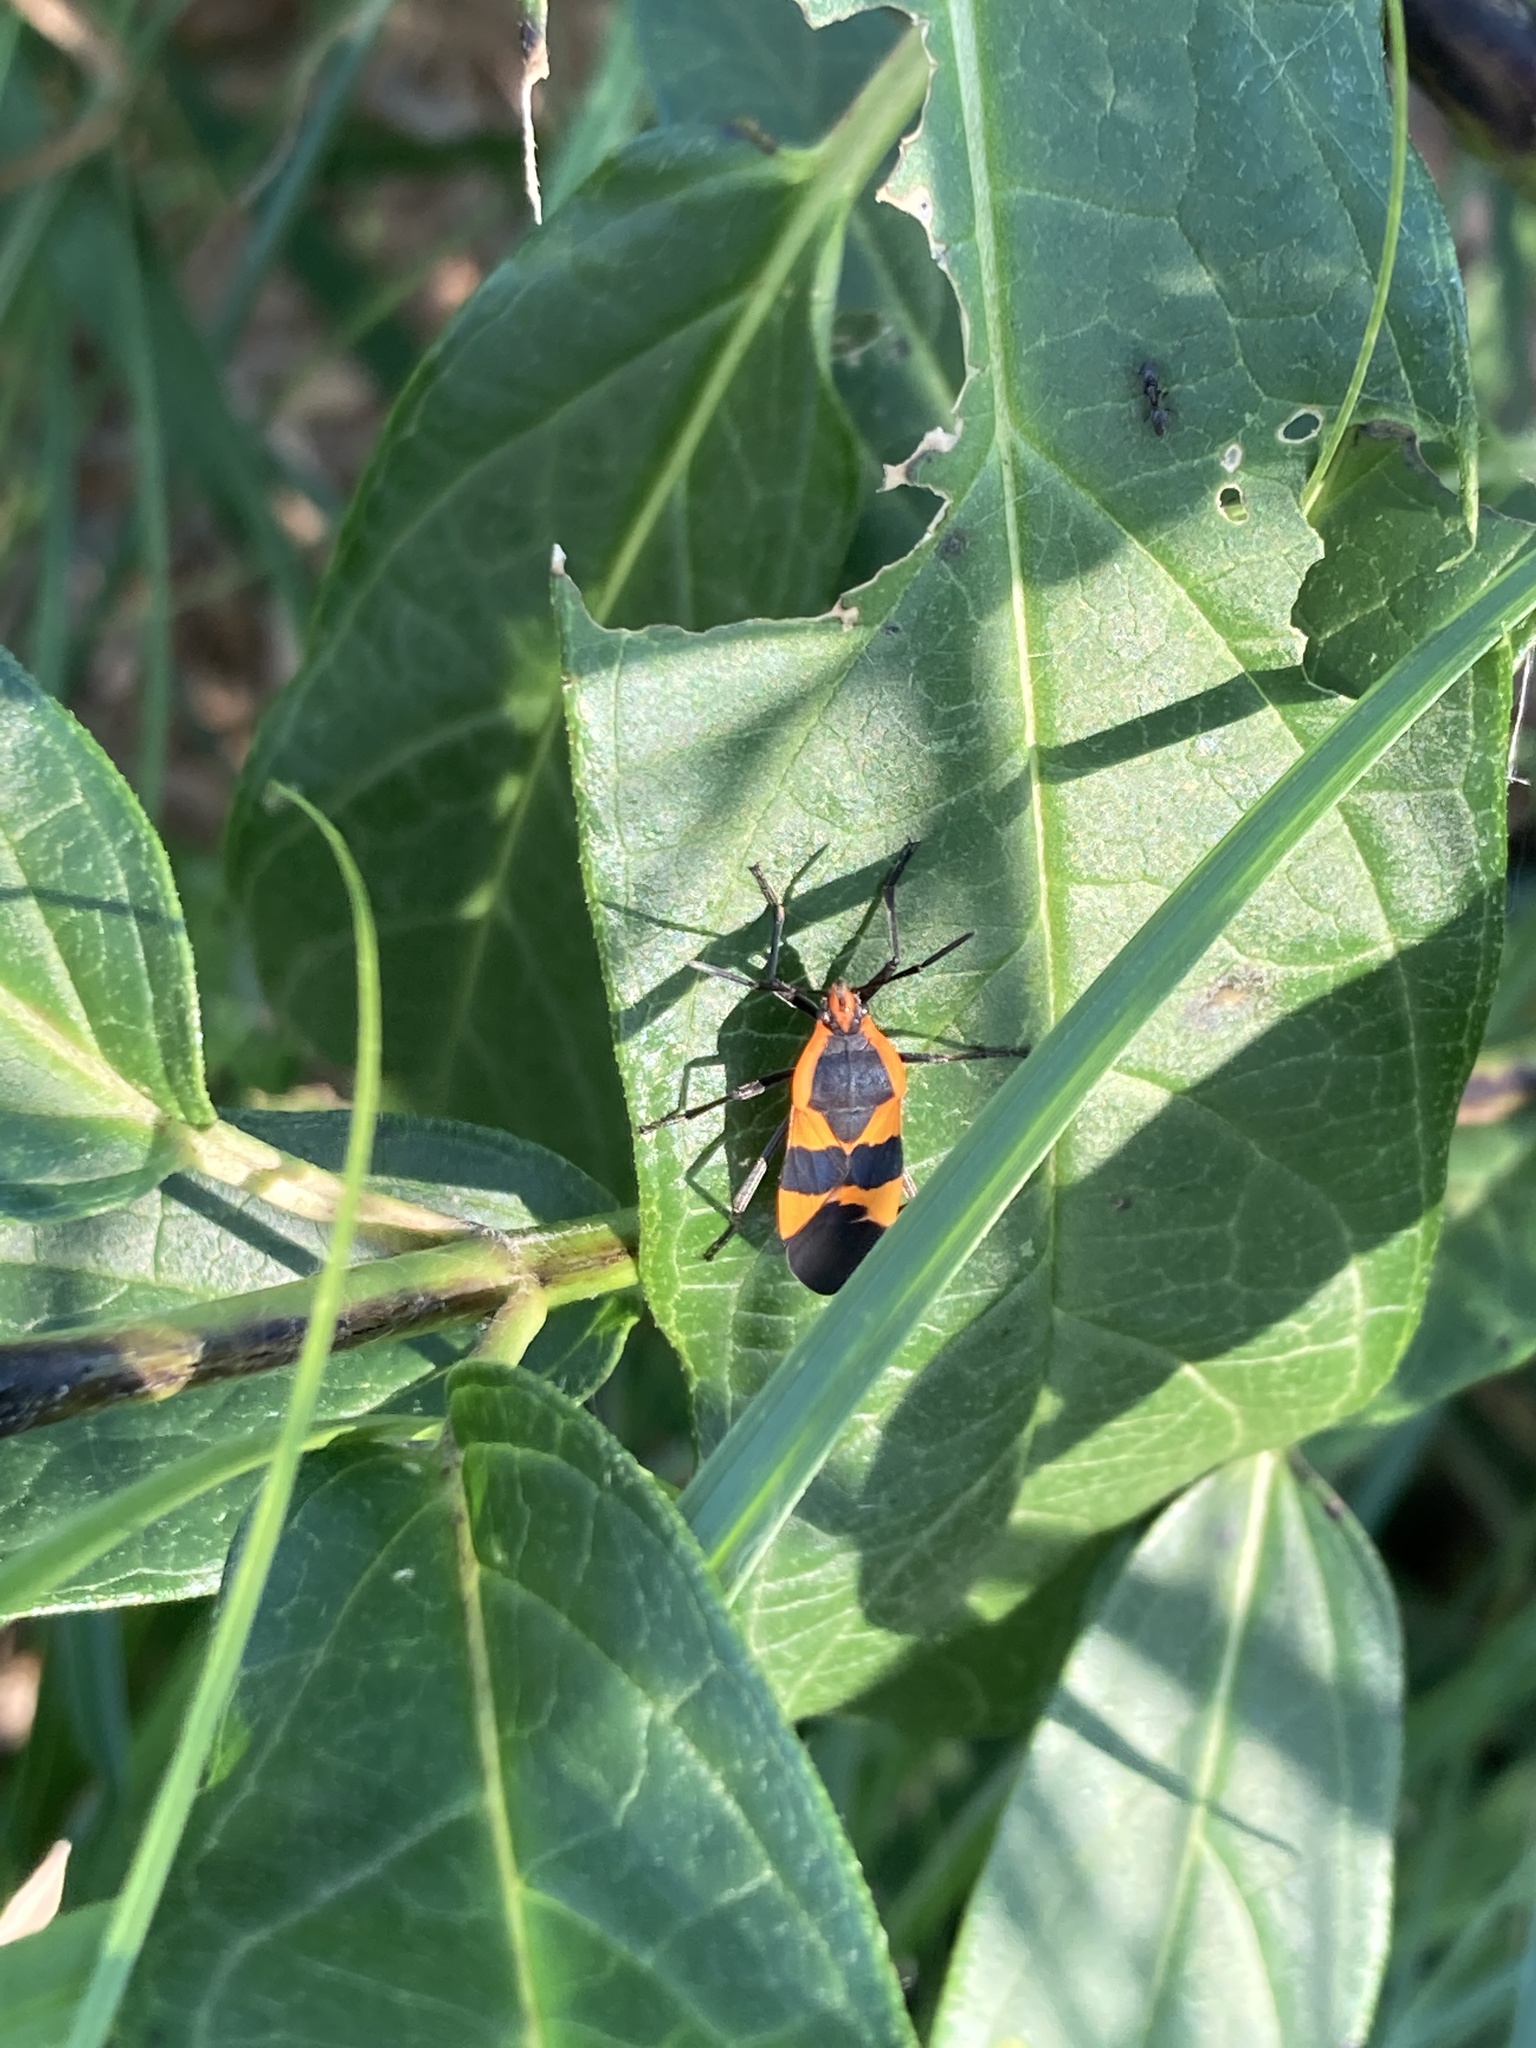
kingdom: Animalia
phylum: Arthropoda
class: Insecta
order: Hemiptera
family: Lygaeidae
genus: Oncopeltus
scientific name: Oncopeltus fasciatus
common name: Large milkweed bug
